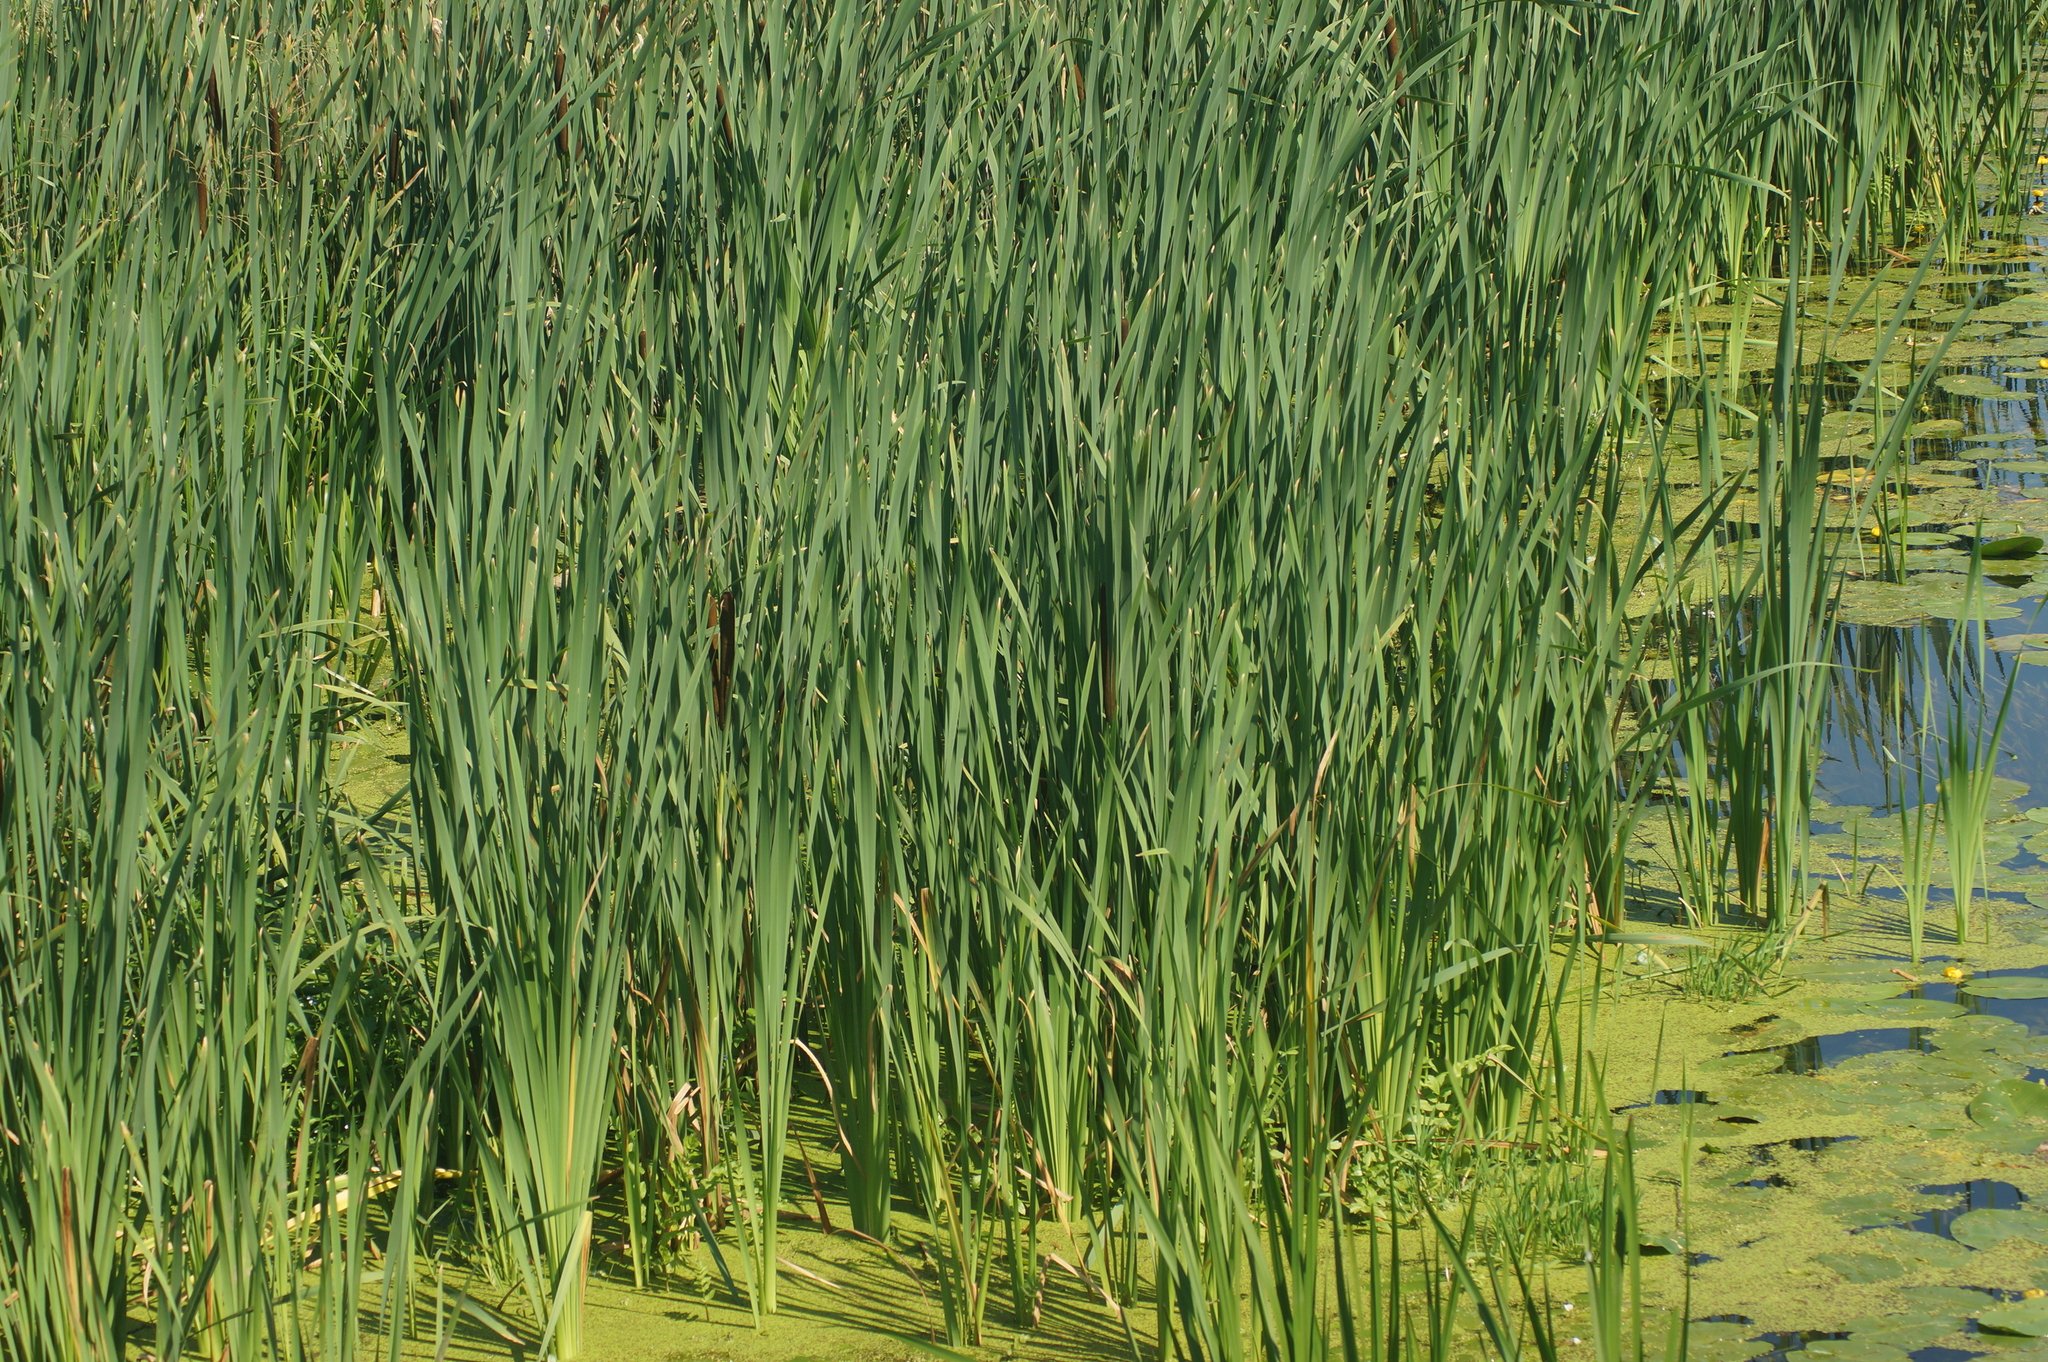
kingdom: Plantae
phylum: Tracheophyta
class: Liliopsida
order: Poales
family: Typhaceae
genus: Typha
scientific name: Typha latifolia
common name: Broadleaf cattail
